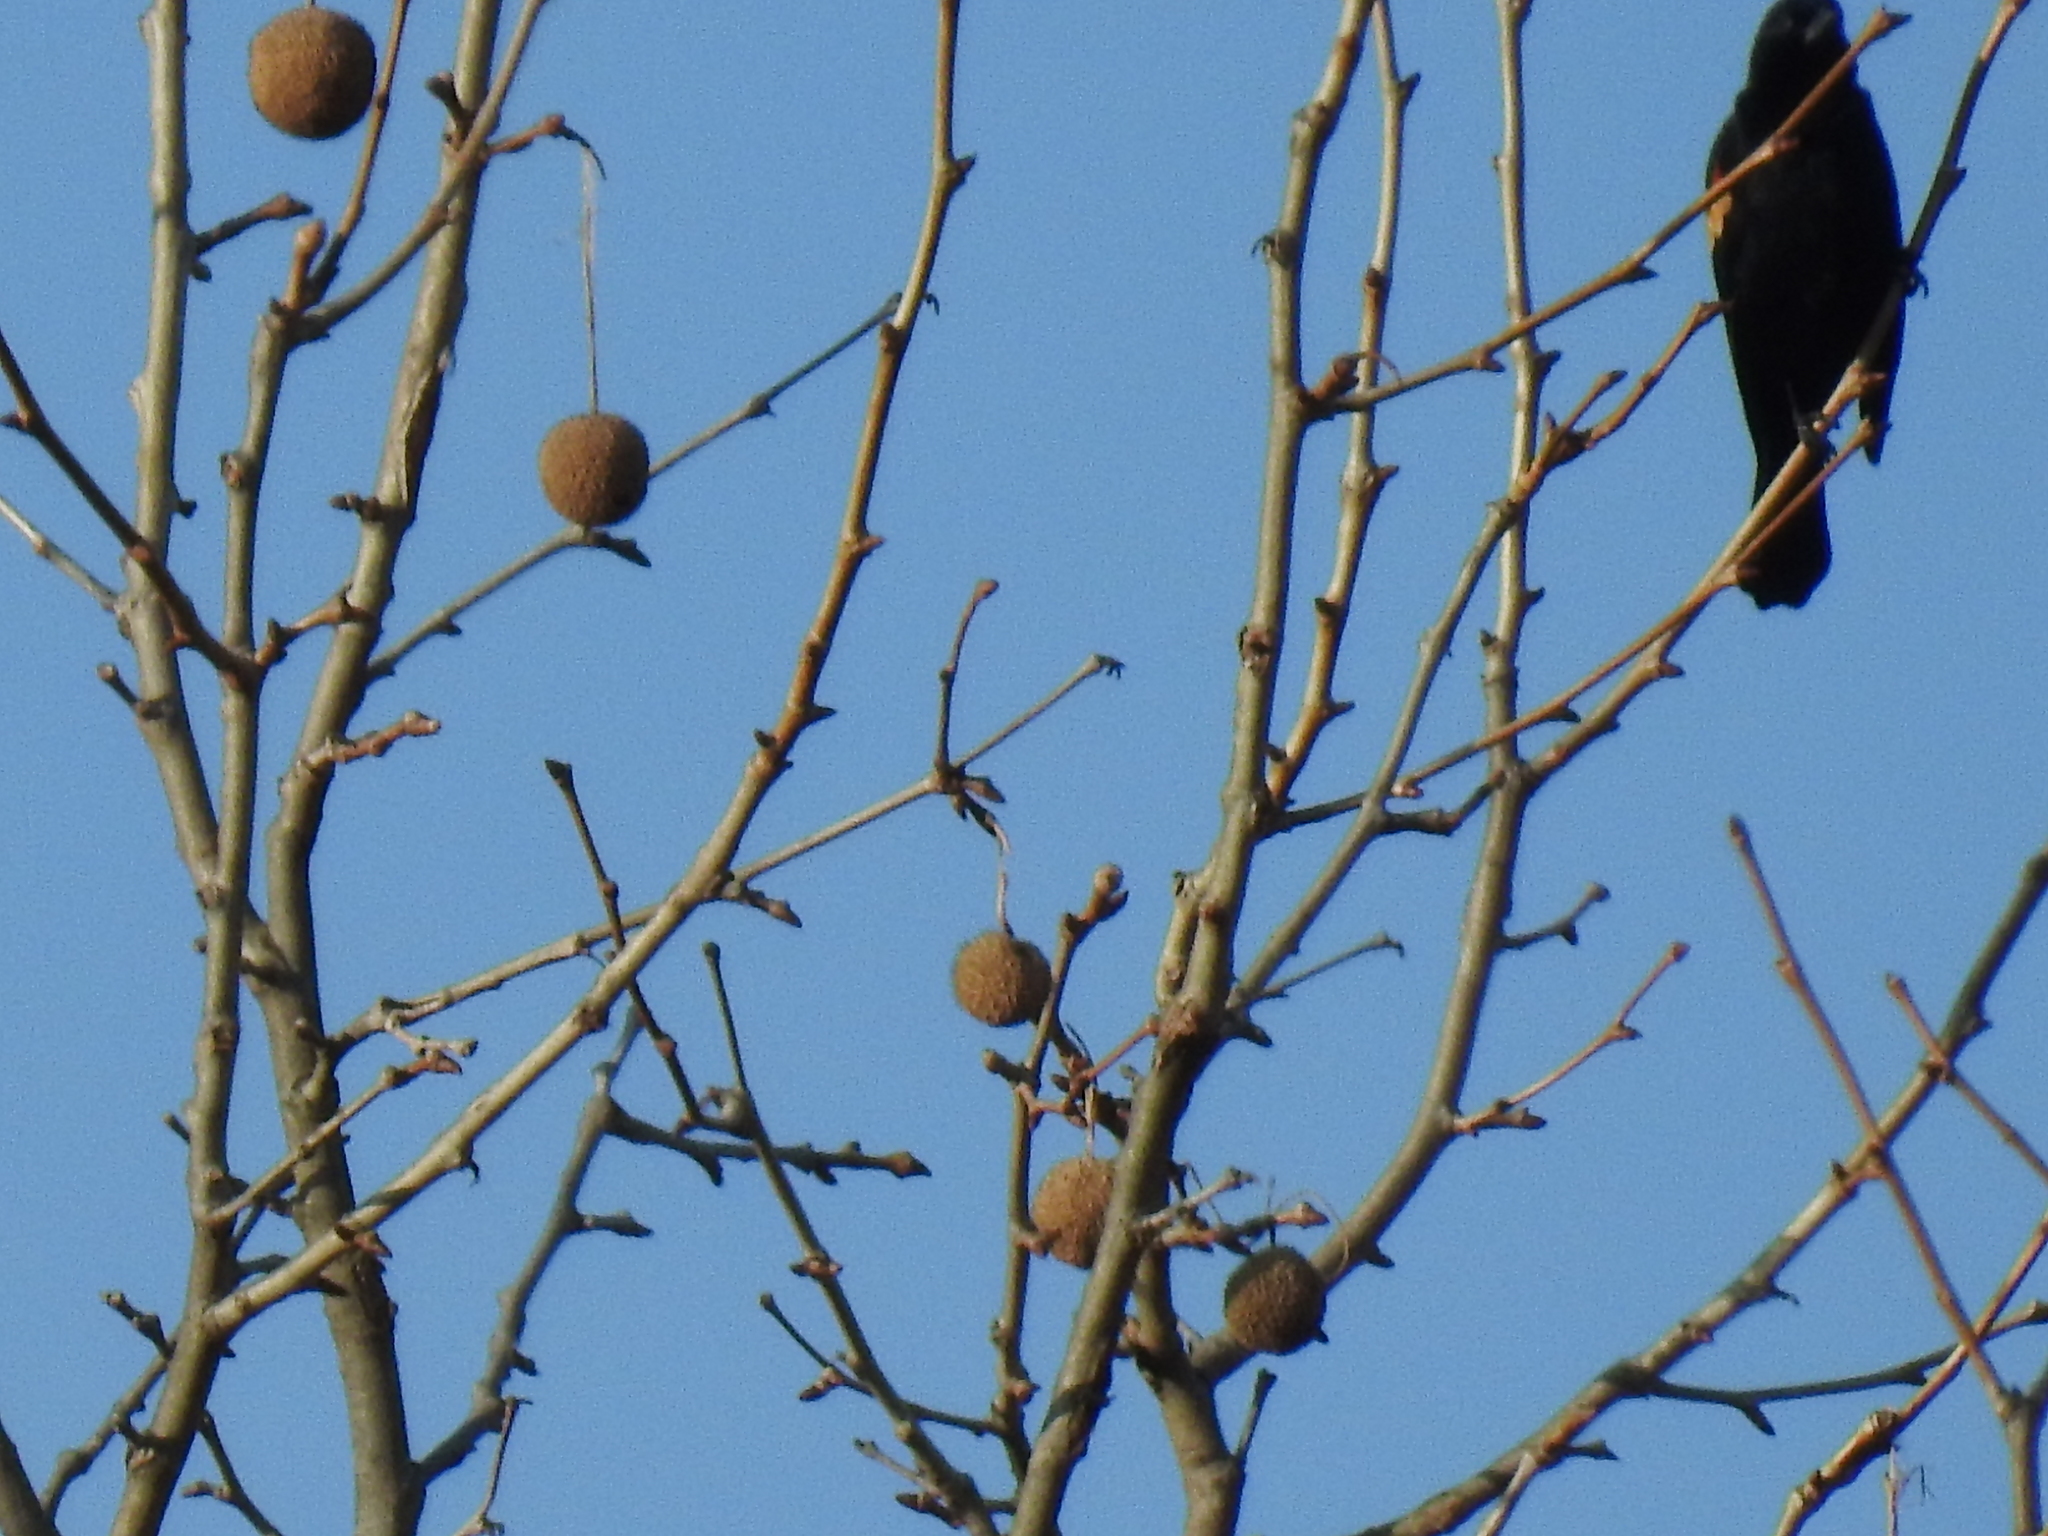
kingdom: Animalia
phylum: Chordata
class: Aves
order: Passeriformes
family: Icteridae
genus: Agelaius
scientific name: Agelaius phoeniceus
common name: Red-winged blackbird
